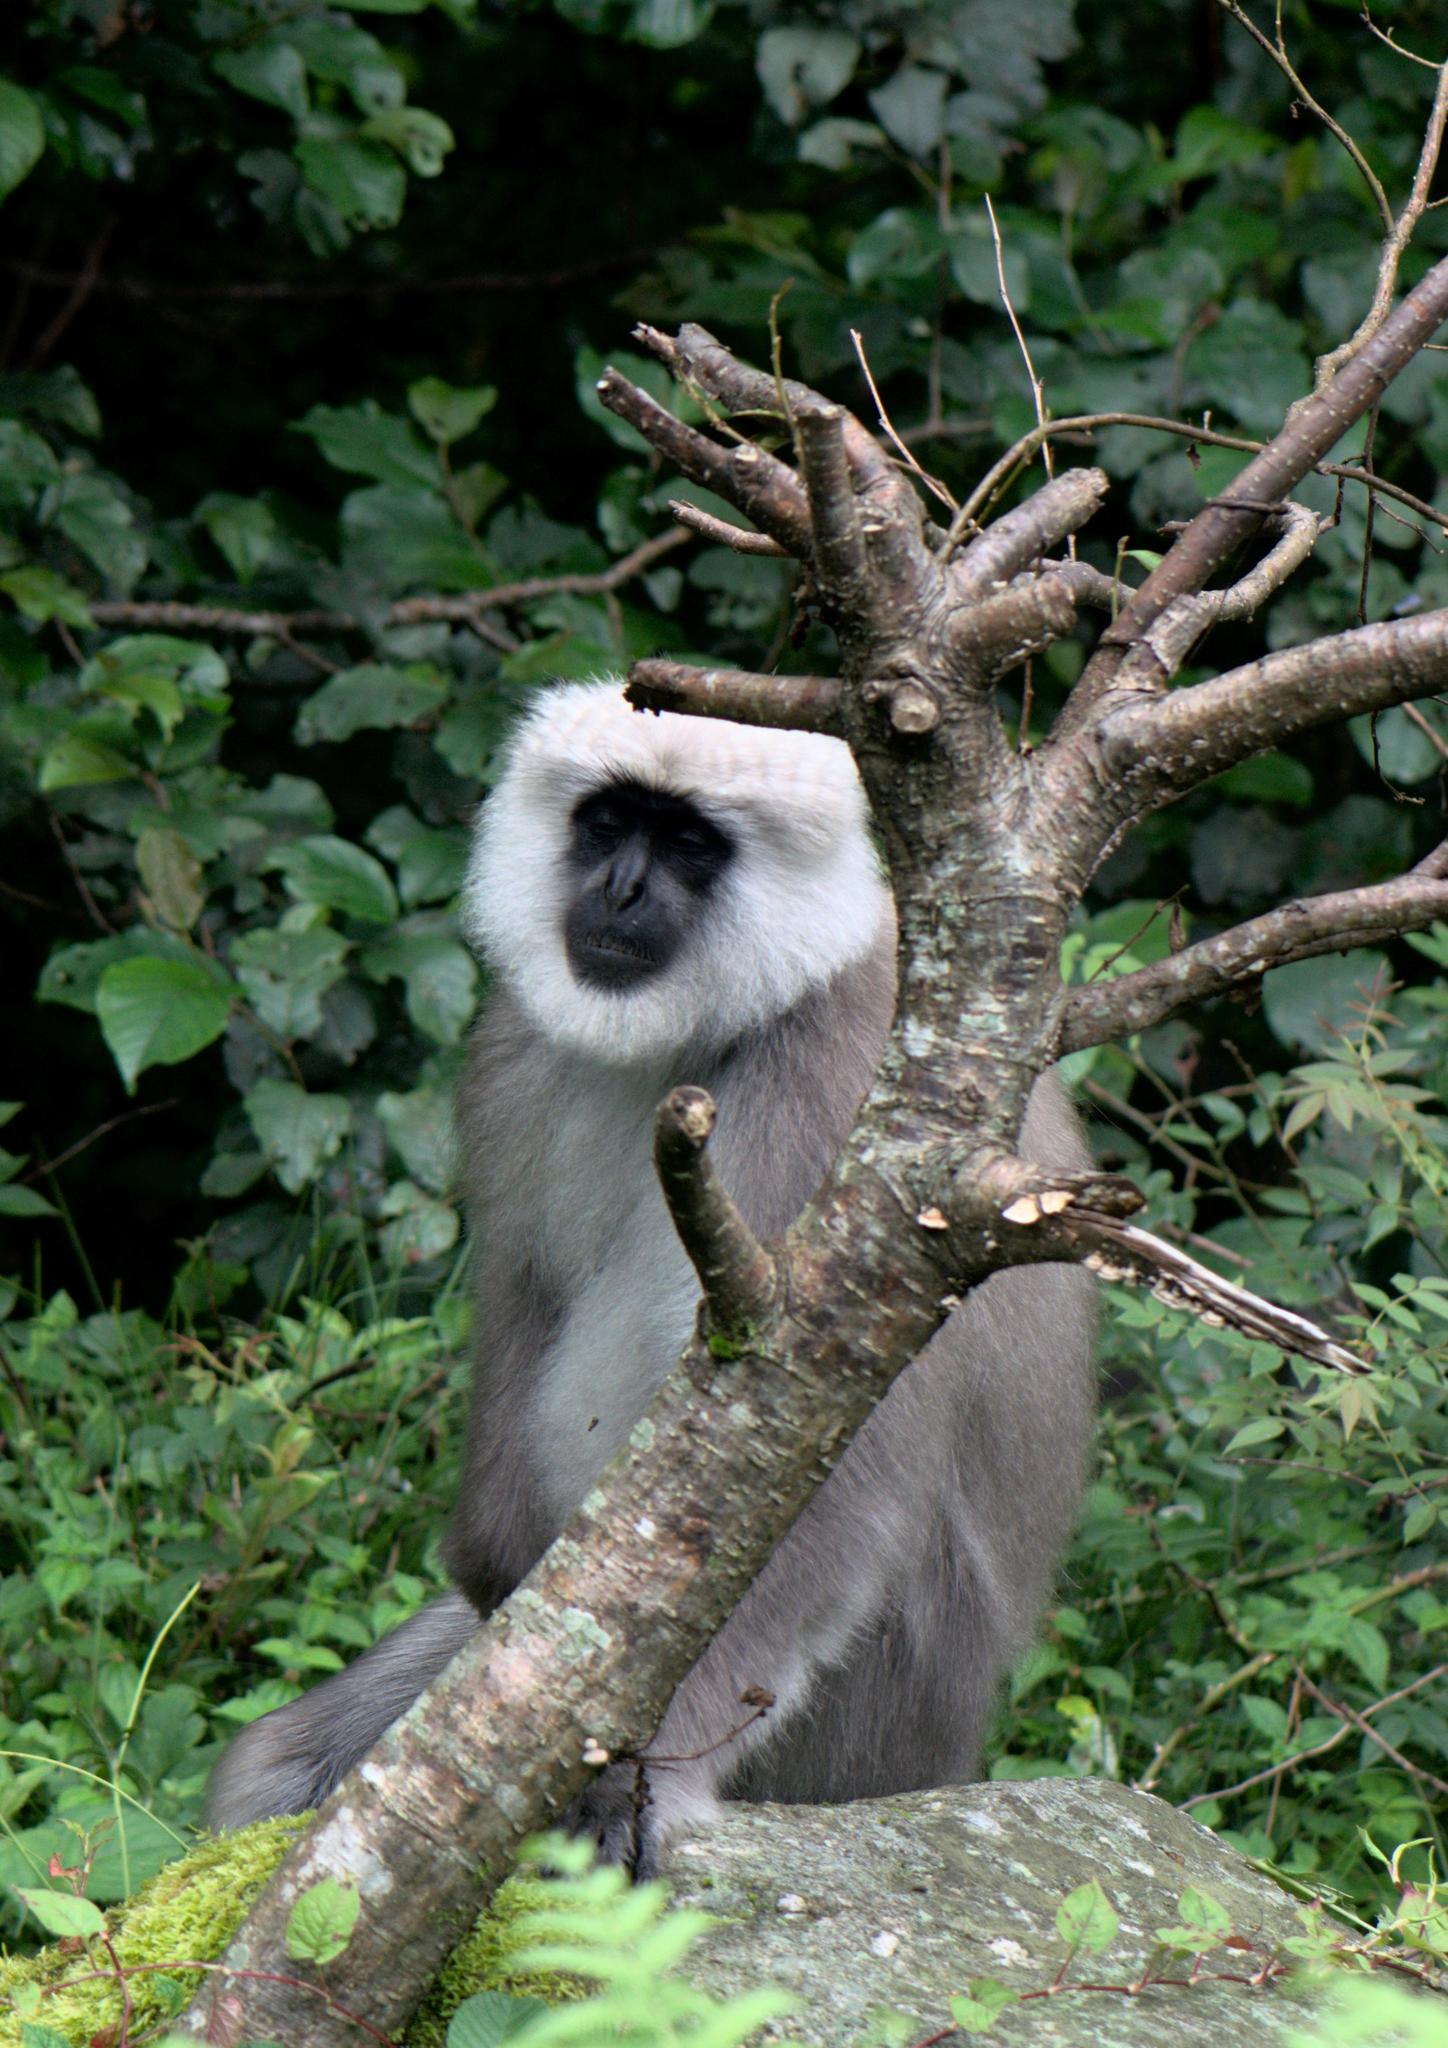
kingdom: Animalia
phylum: Chordata
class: Mammalia
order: Primates
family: Cercopithecidae
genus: Semnopithecus
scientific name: Semnopithecus schistaceus
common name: Nepal gray langur
